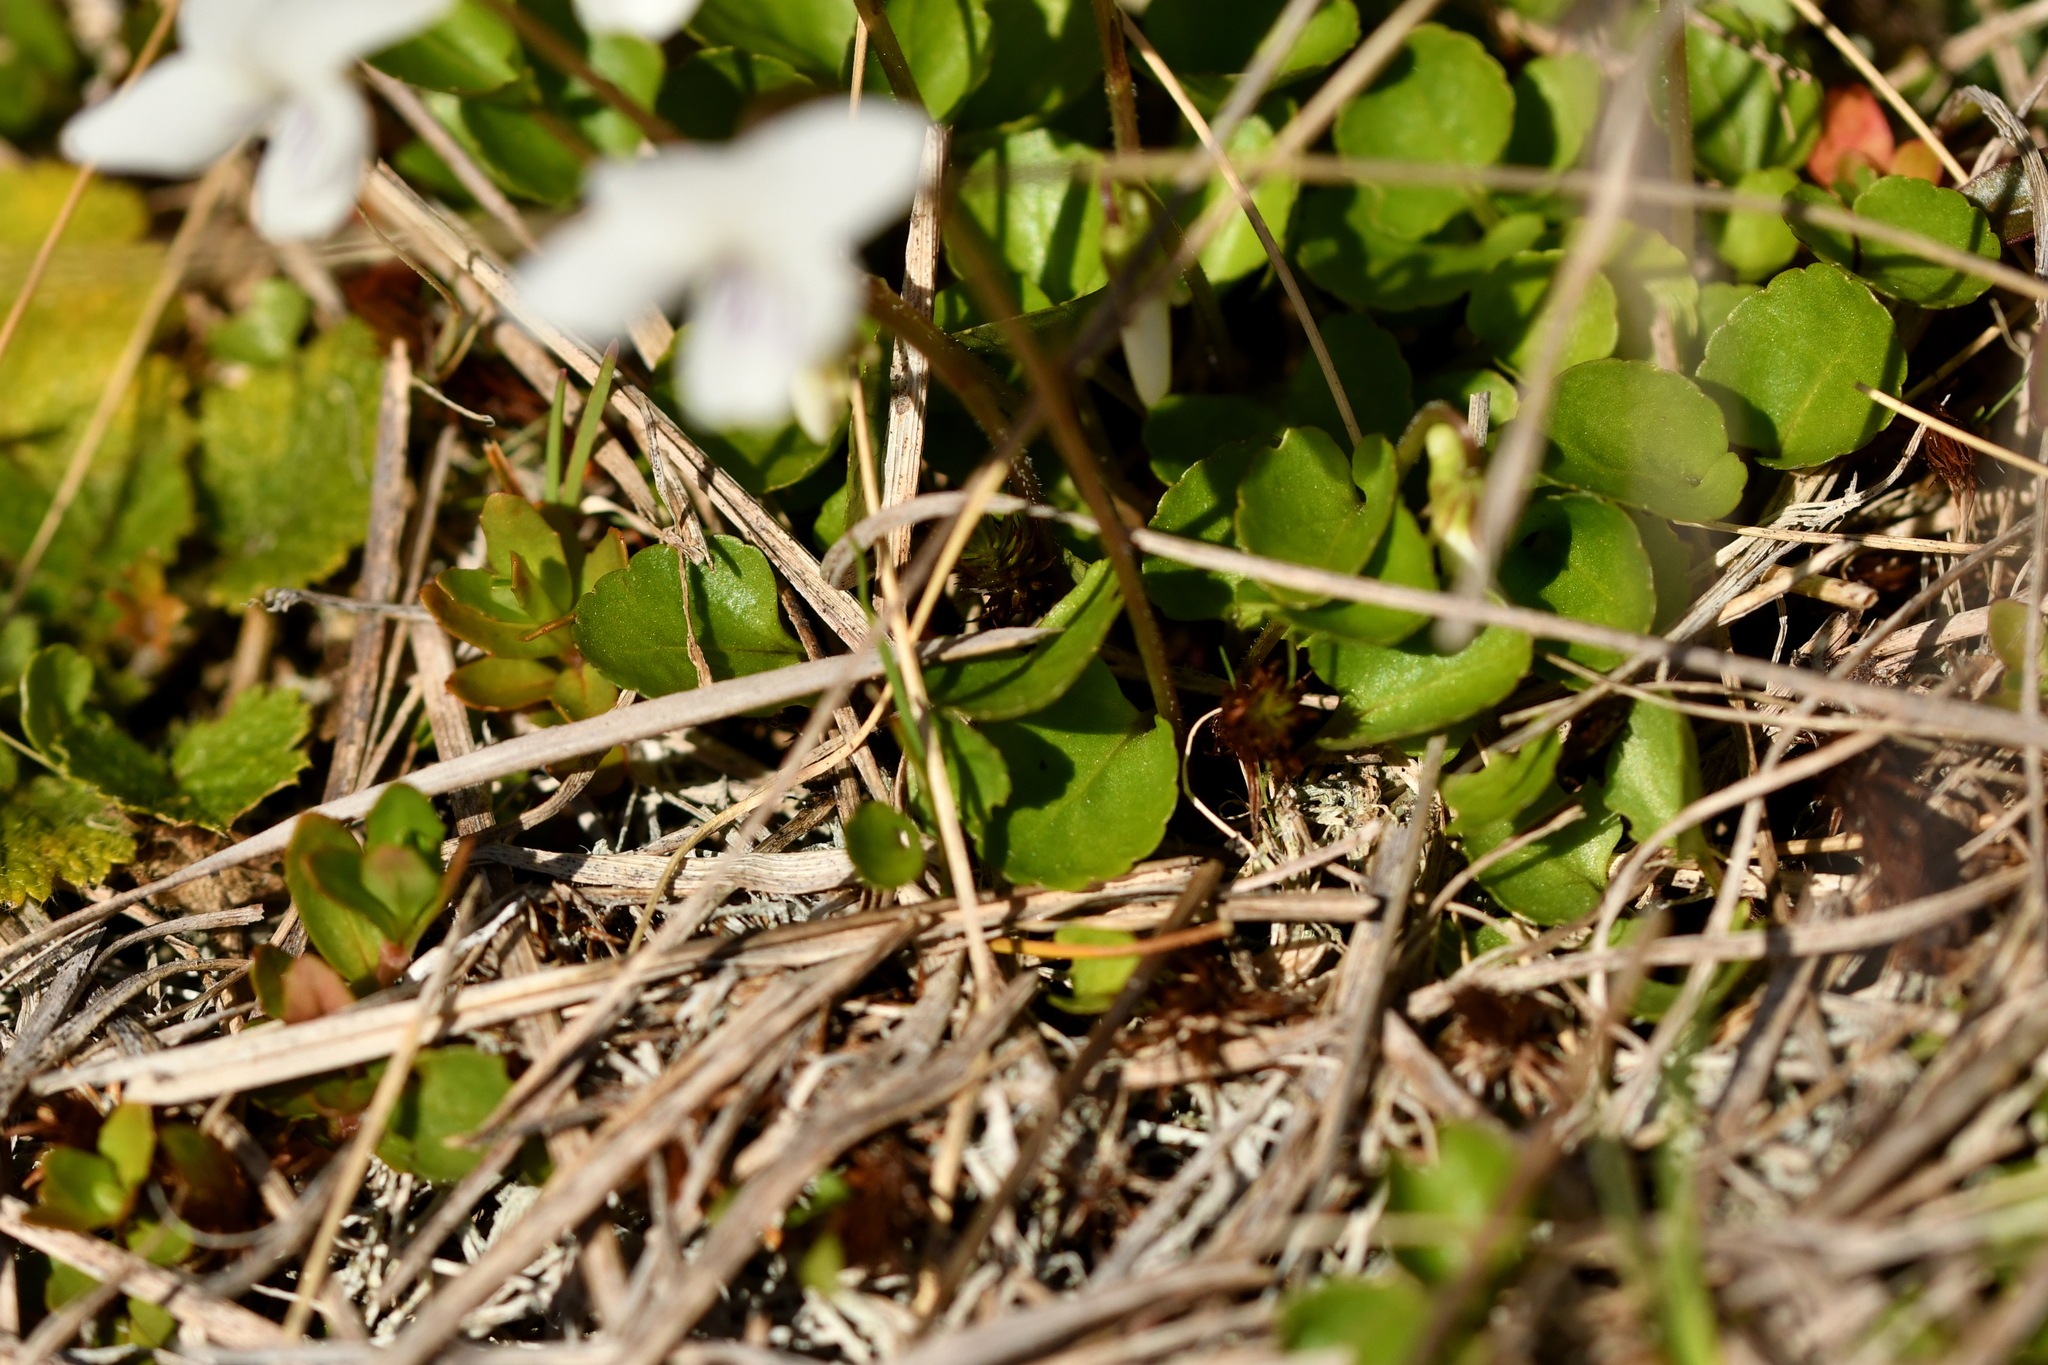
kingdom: Plantae
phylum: Tracheophyta
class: Magnoliopsida
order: Malpighiales
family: Violaceae
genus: Viola
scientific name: Viola cunninghamii
